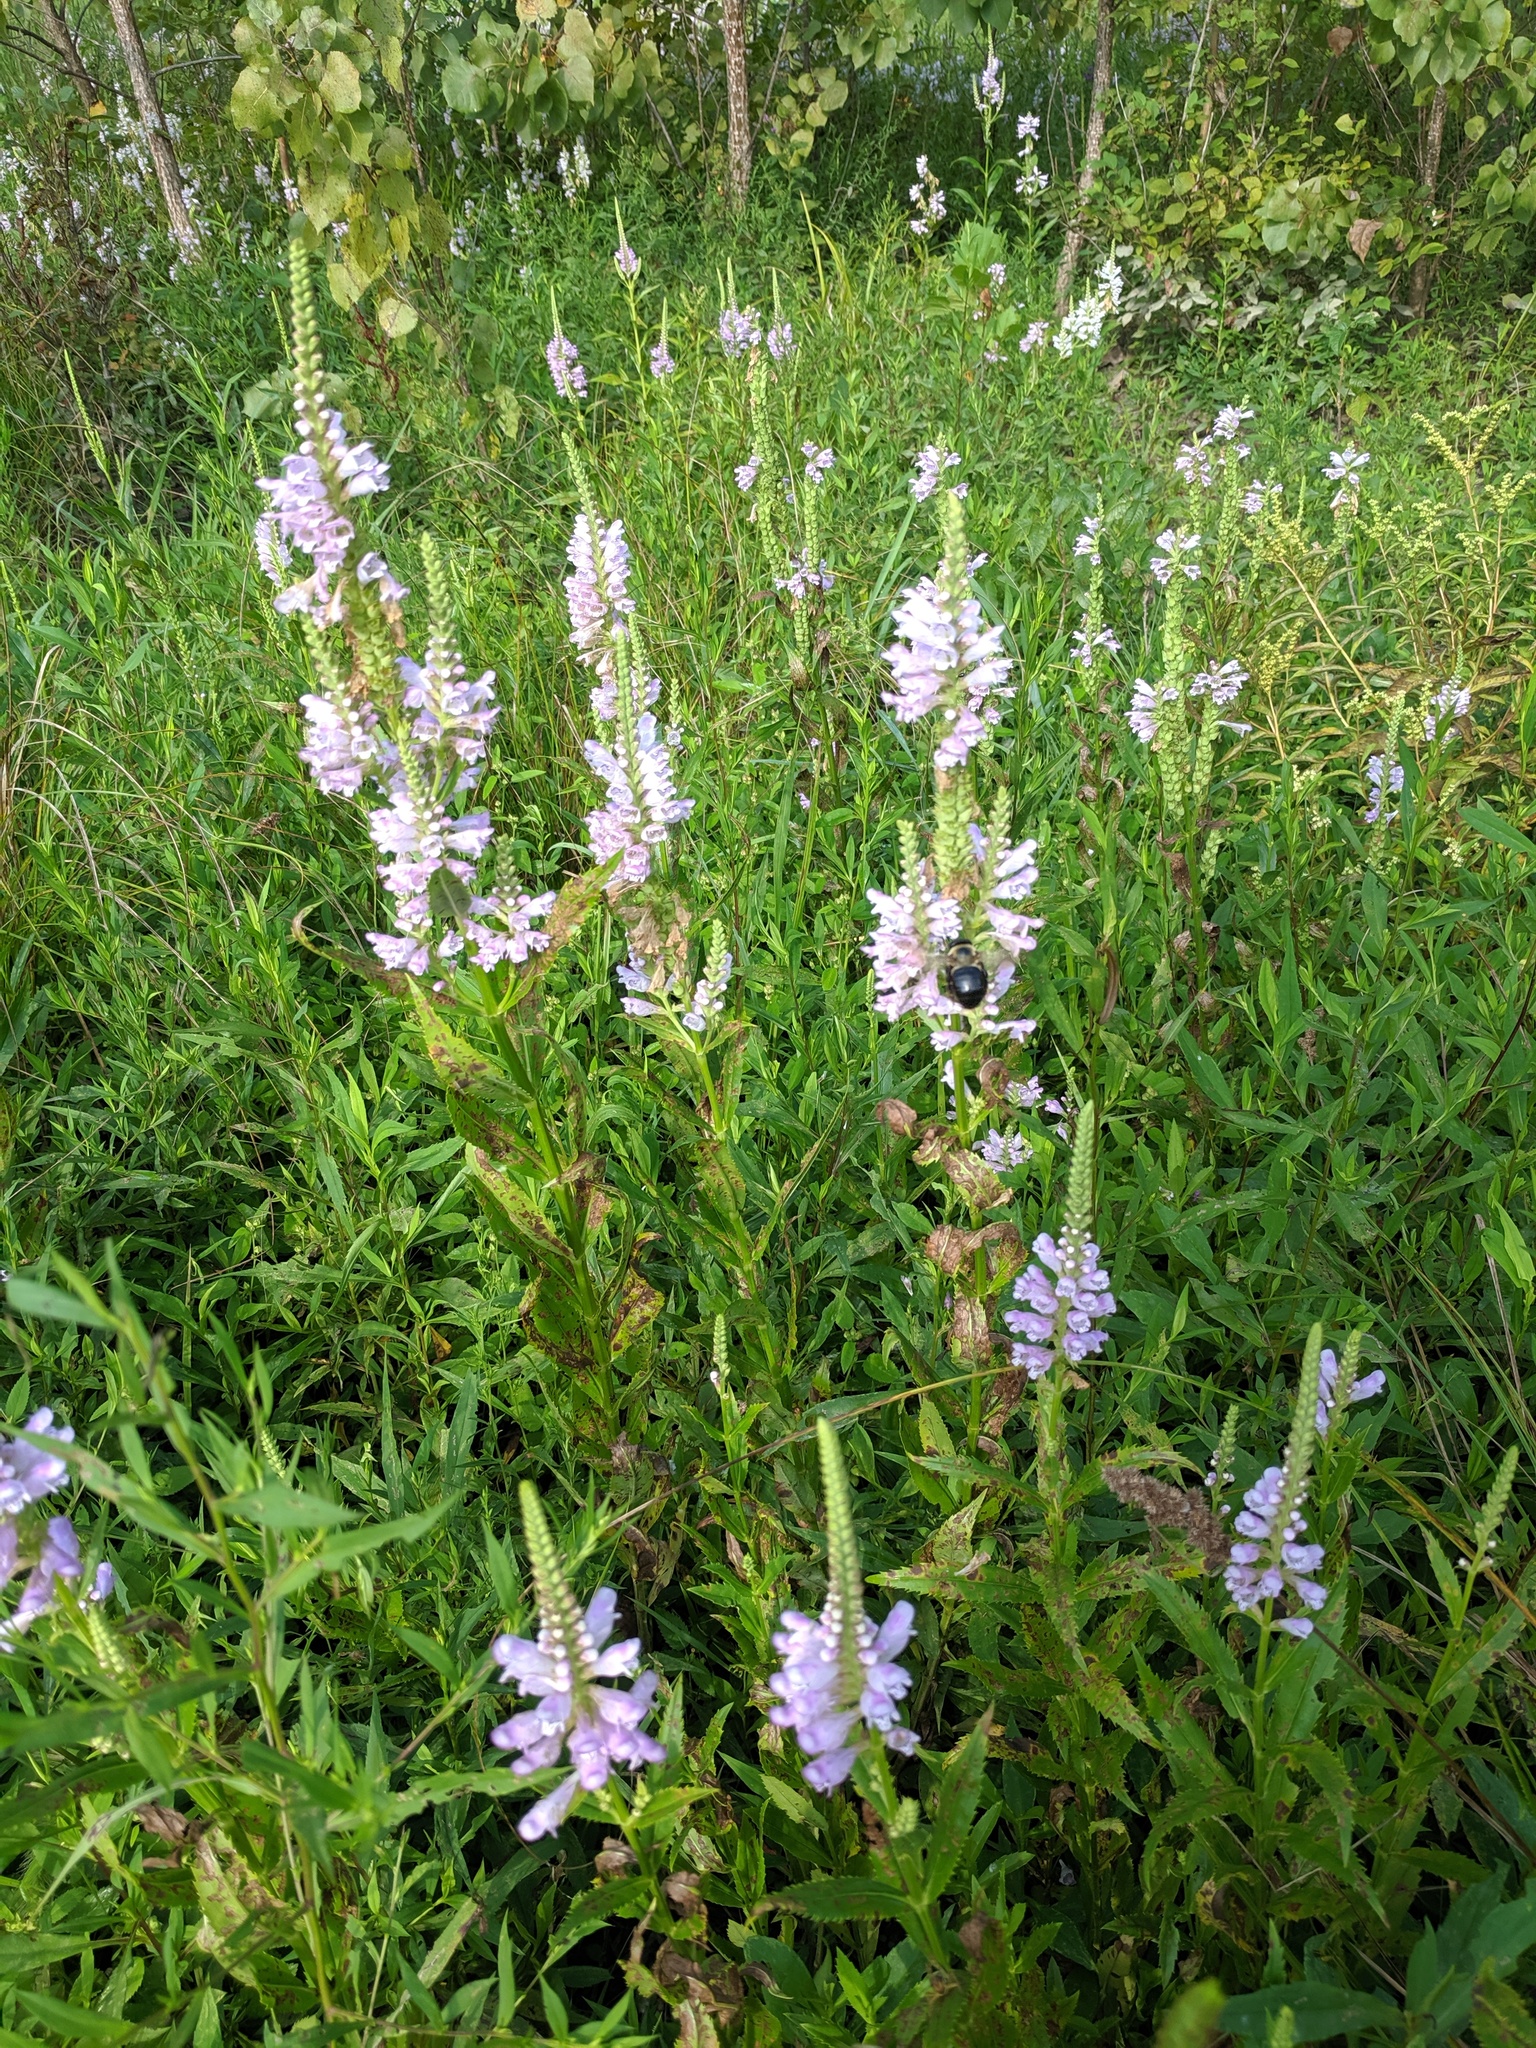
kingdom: Plantae
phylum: Tracheophyta
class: Magnoliopsida
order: Lamiales
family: Lamiaceae
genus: Physostegia
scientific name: Physostegia virginiana
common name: Obedient-plant
